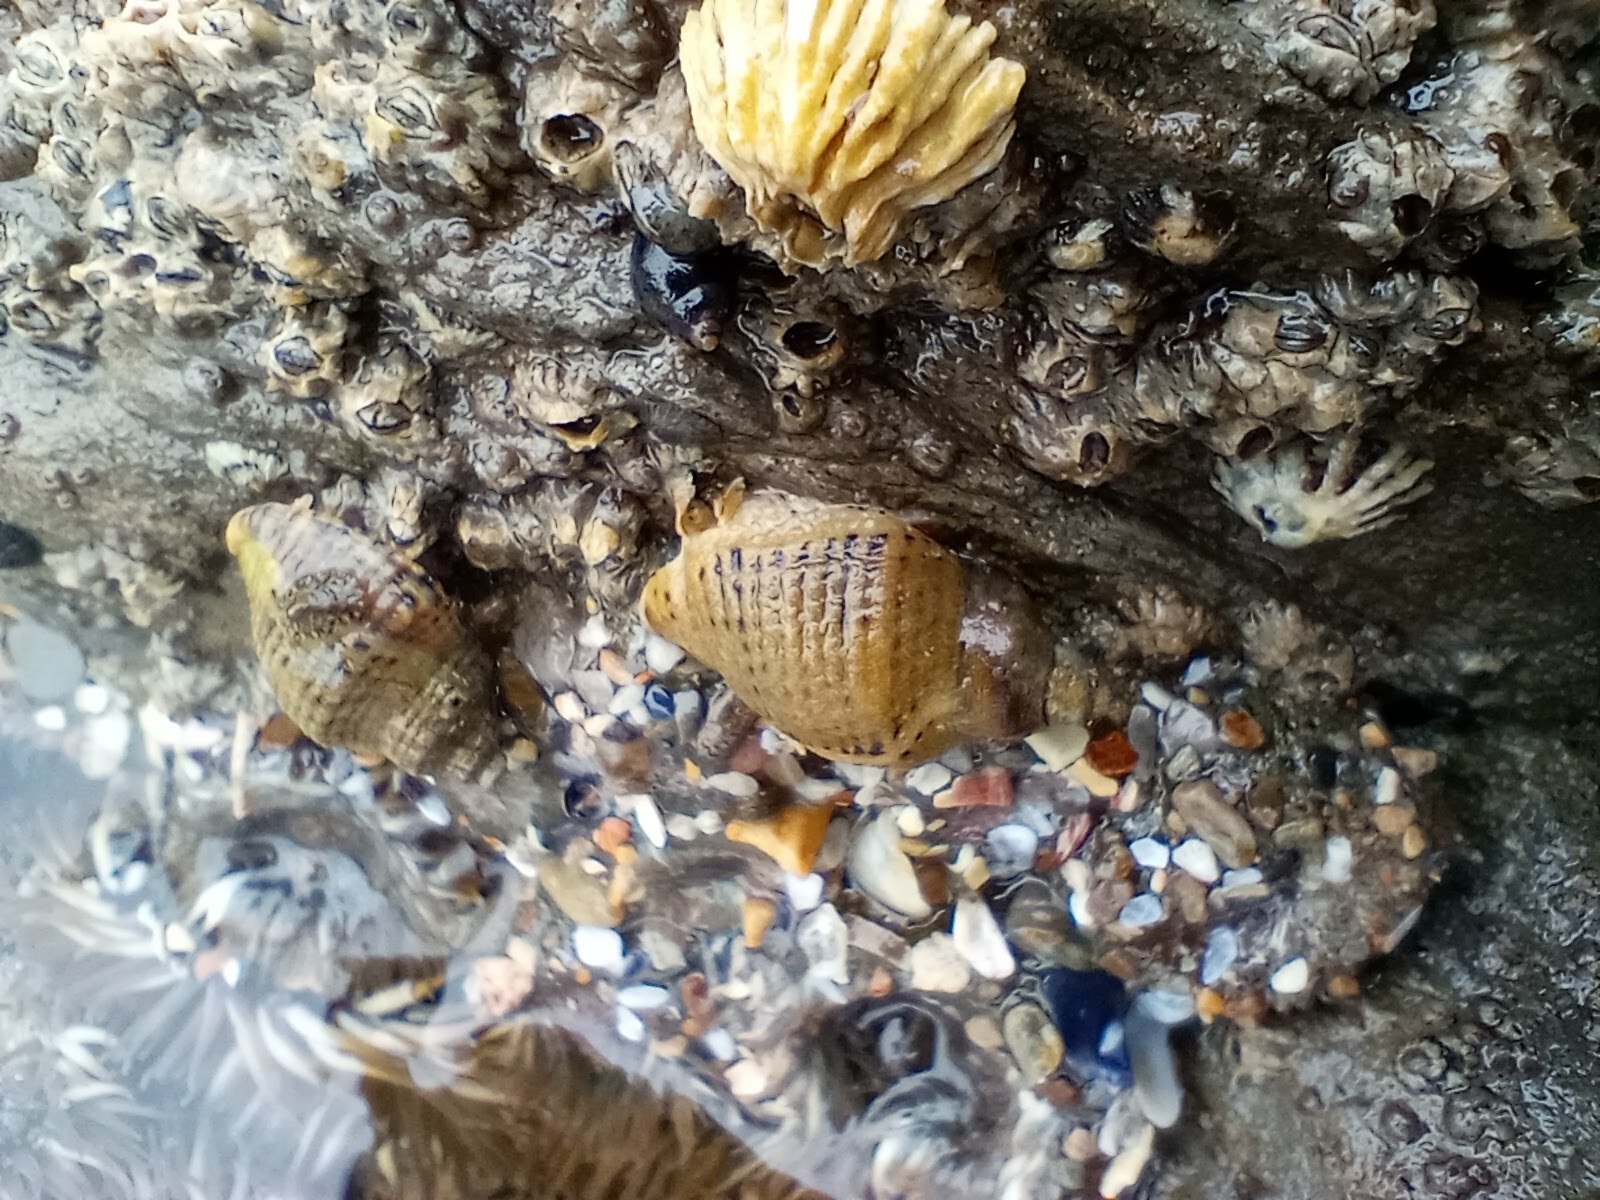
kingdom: Animalia
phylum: Mollusca
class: Gastropoda
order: Neogastropoda
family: Muricidae
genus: Acanthinucella
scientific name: Acanthinucella spirata
